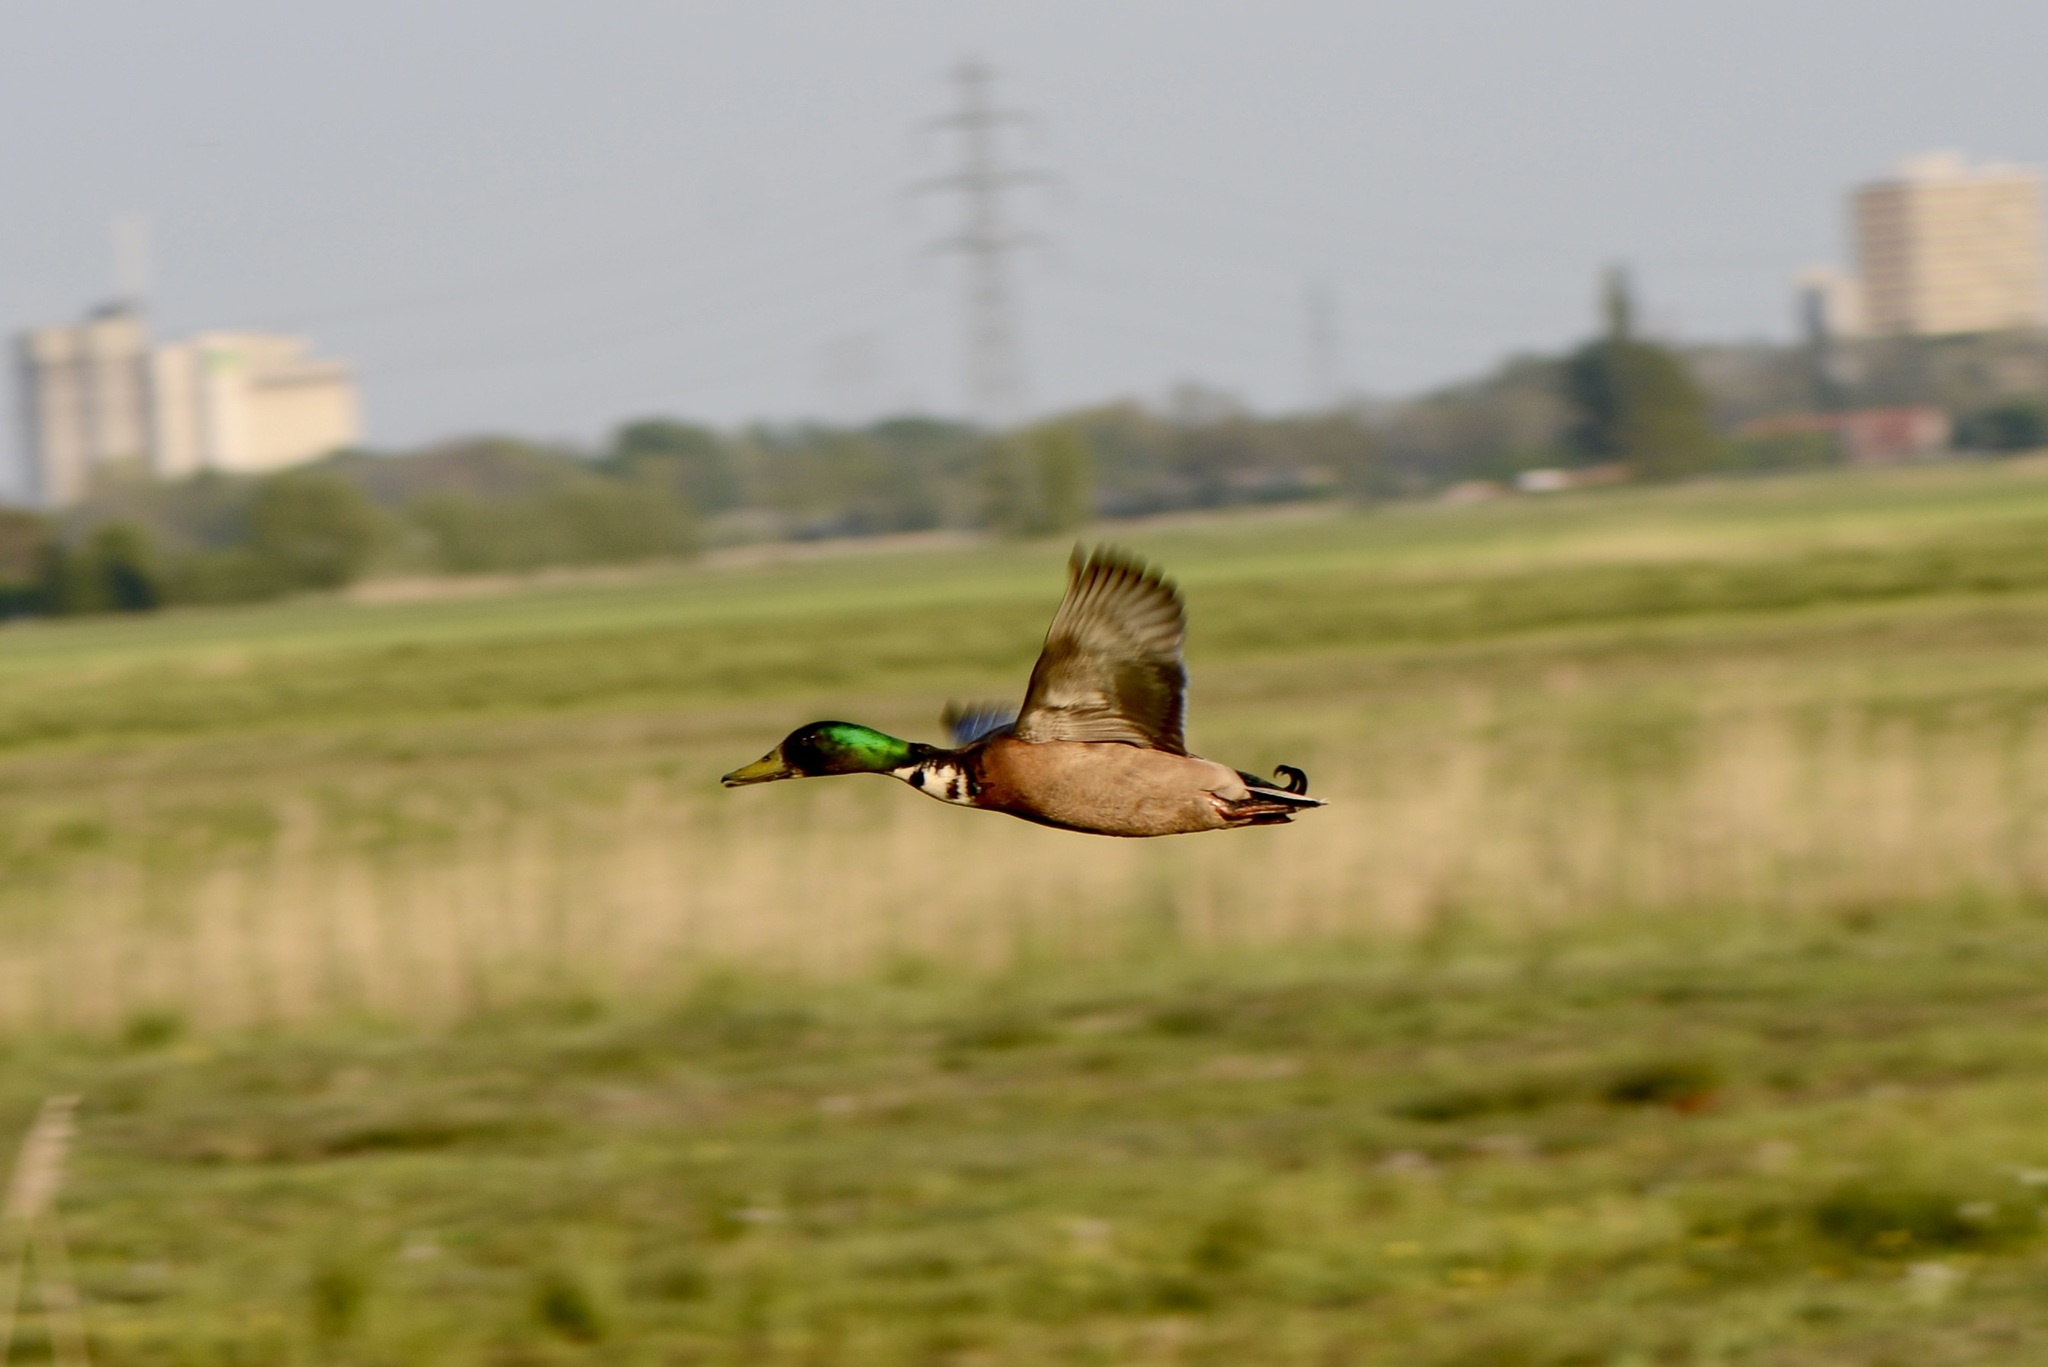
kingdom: Animalia
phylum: Chordata
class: Aves
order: Anseriformes
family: Anatidae
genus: Anas
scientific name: Anas platyrhynchos
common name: Mallard
